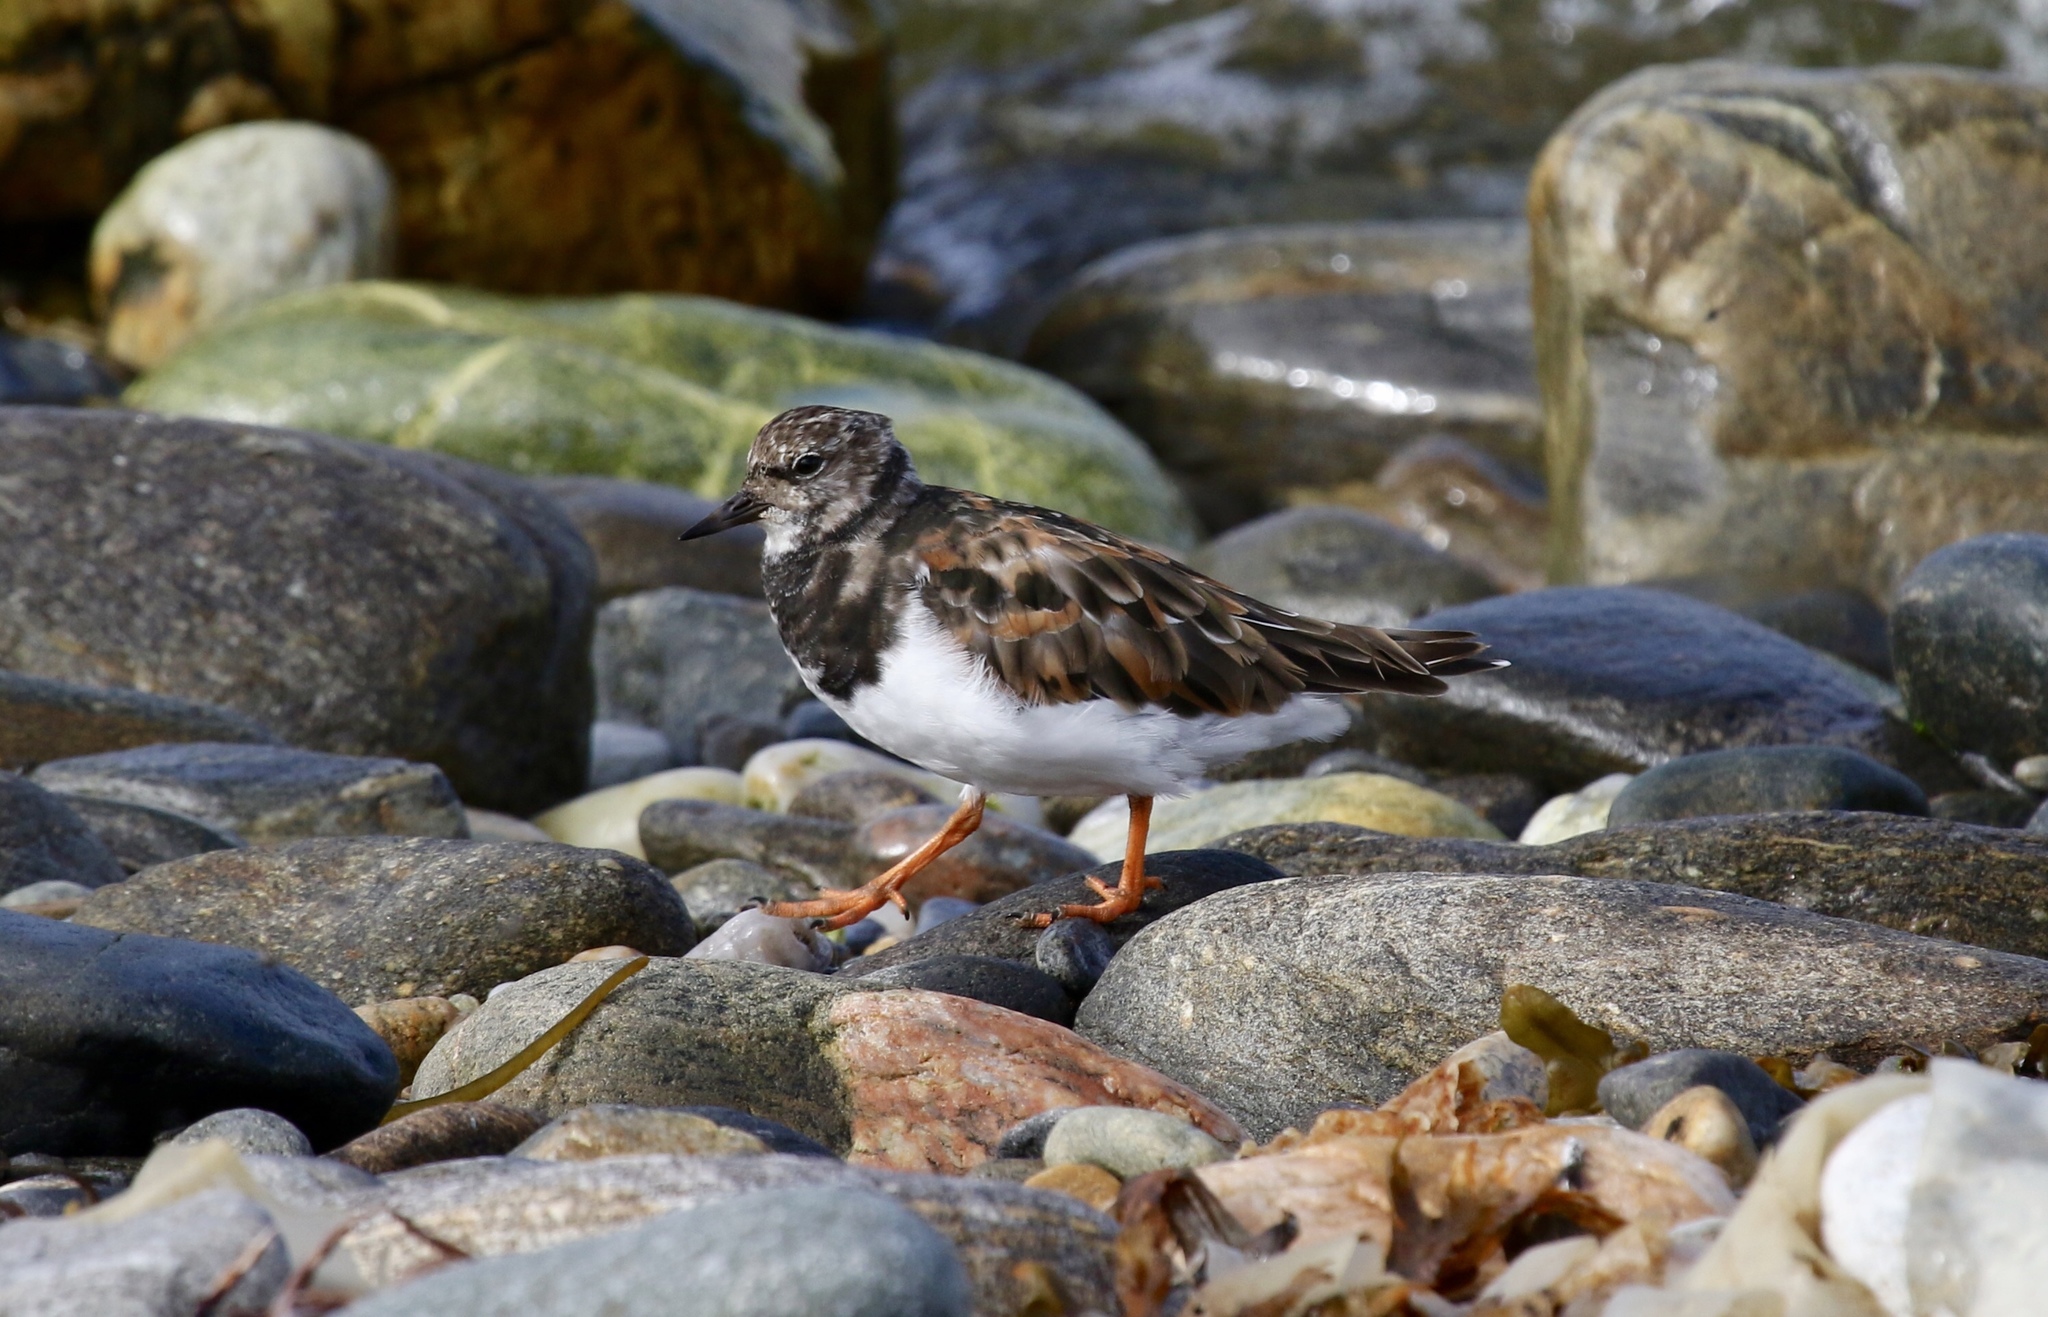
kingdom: Animalia
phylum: Chordata
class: Aves
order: Charadriiformes
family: Scolopacidae
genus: Arenaria
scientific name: Arenaria interpres
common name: Ruddy turnstone
